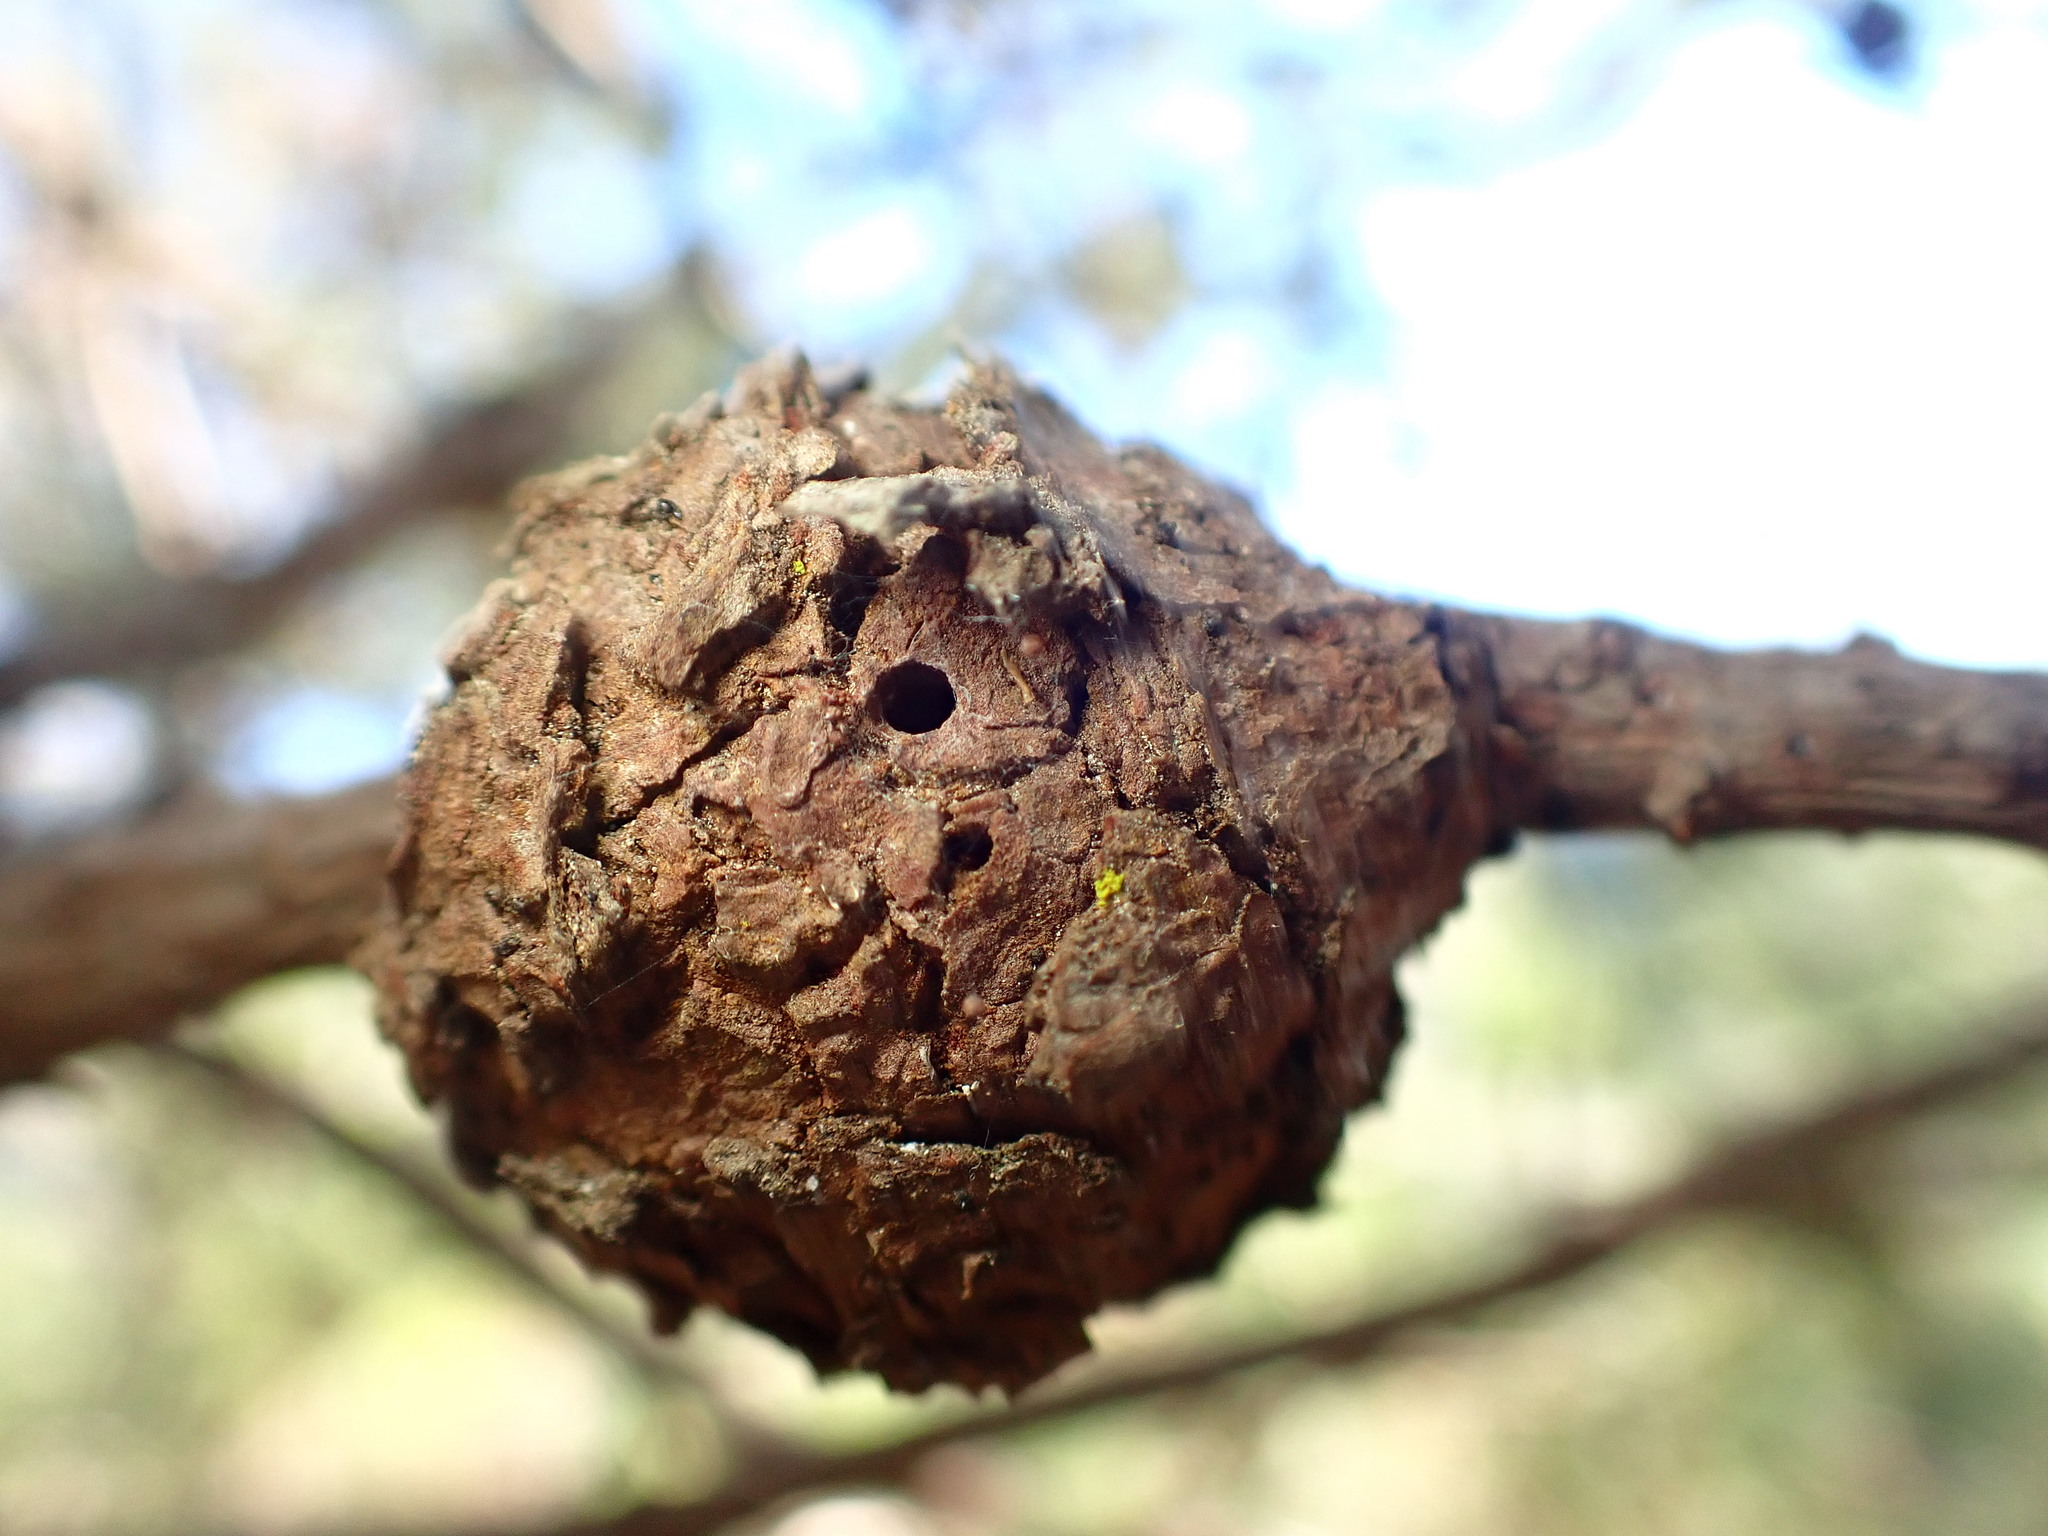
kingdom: Fungi
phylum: Basidiomycota
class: Pucciniomycetes
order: Pucciniales
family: Cronartiaceae
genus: Cronartium
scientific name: Cronartium harknessii
